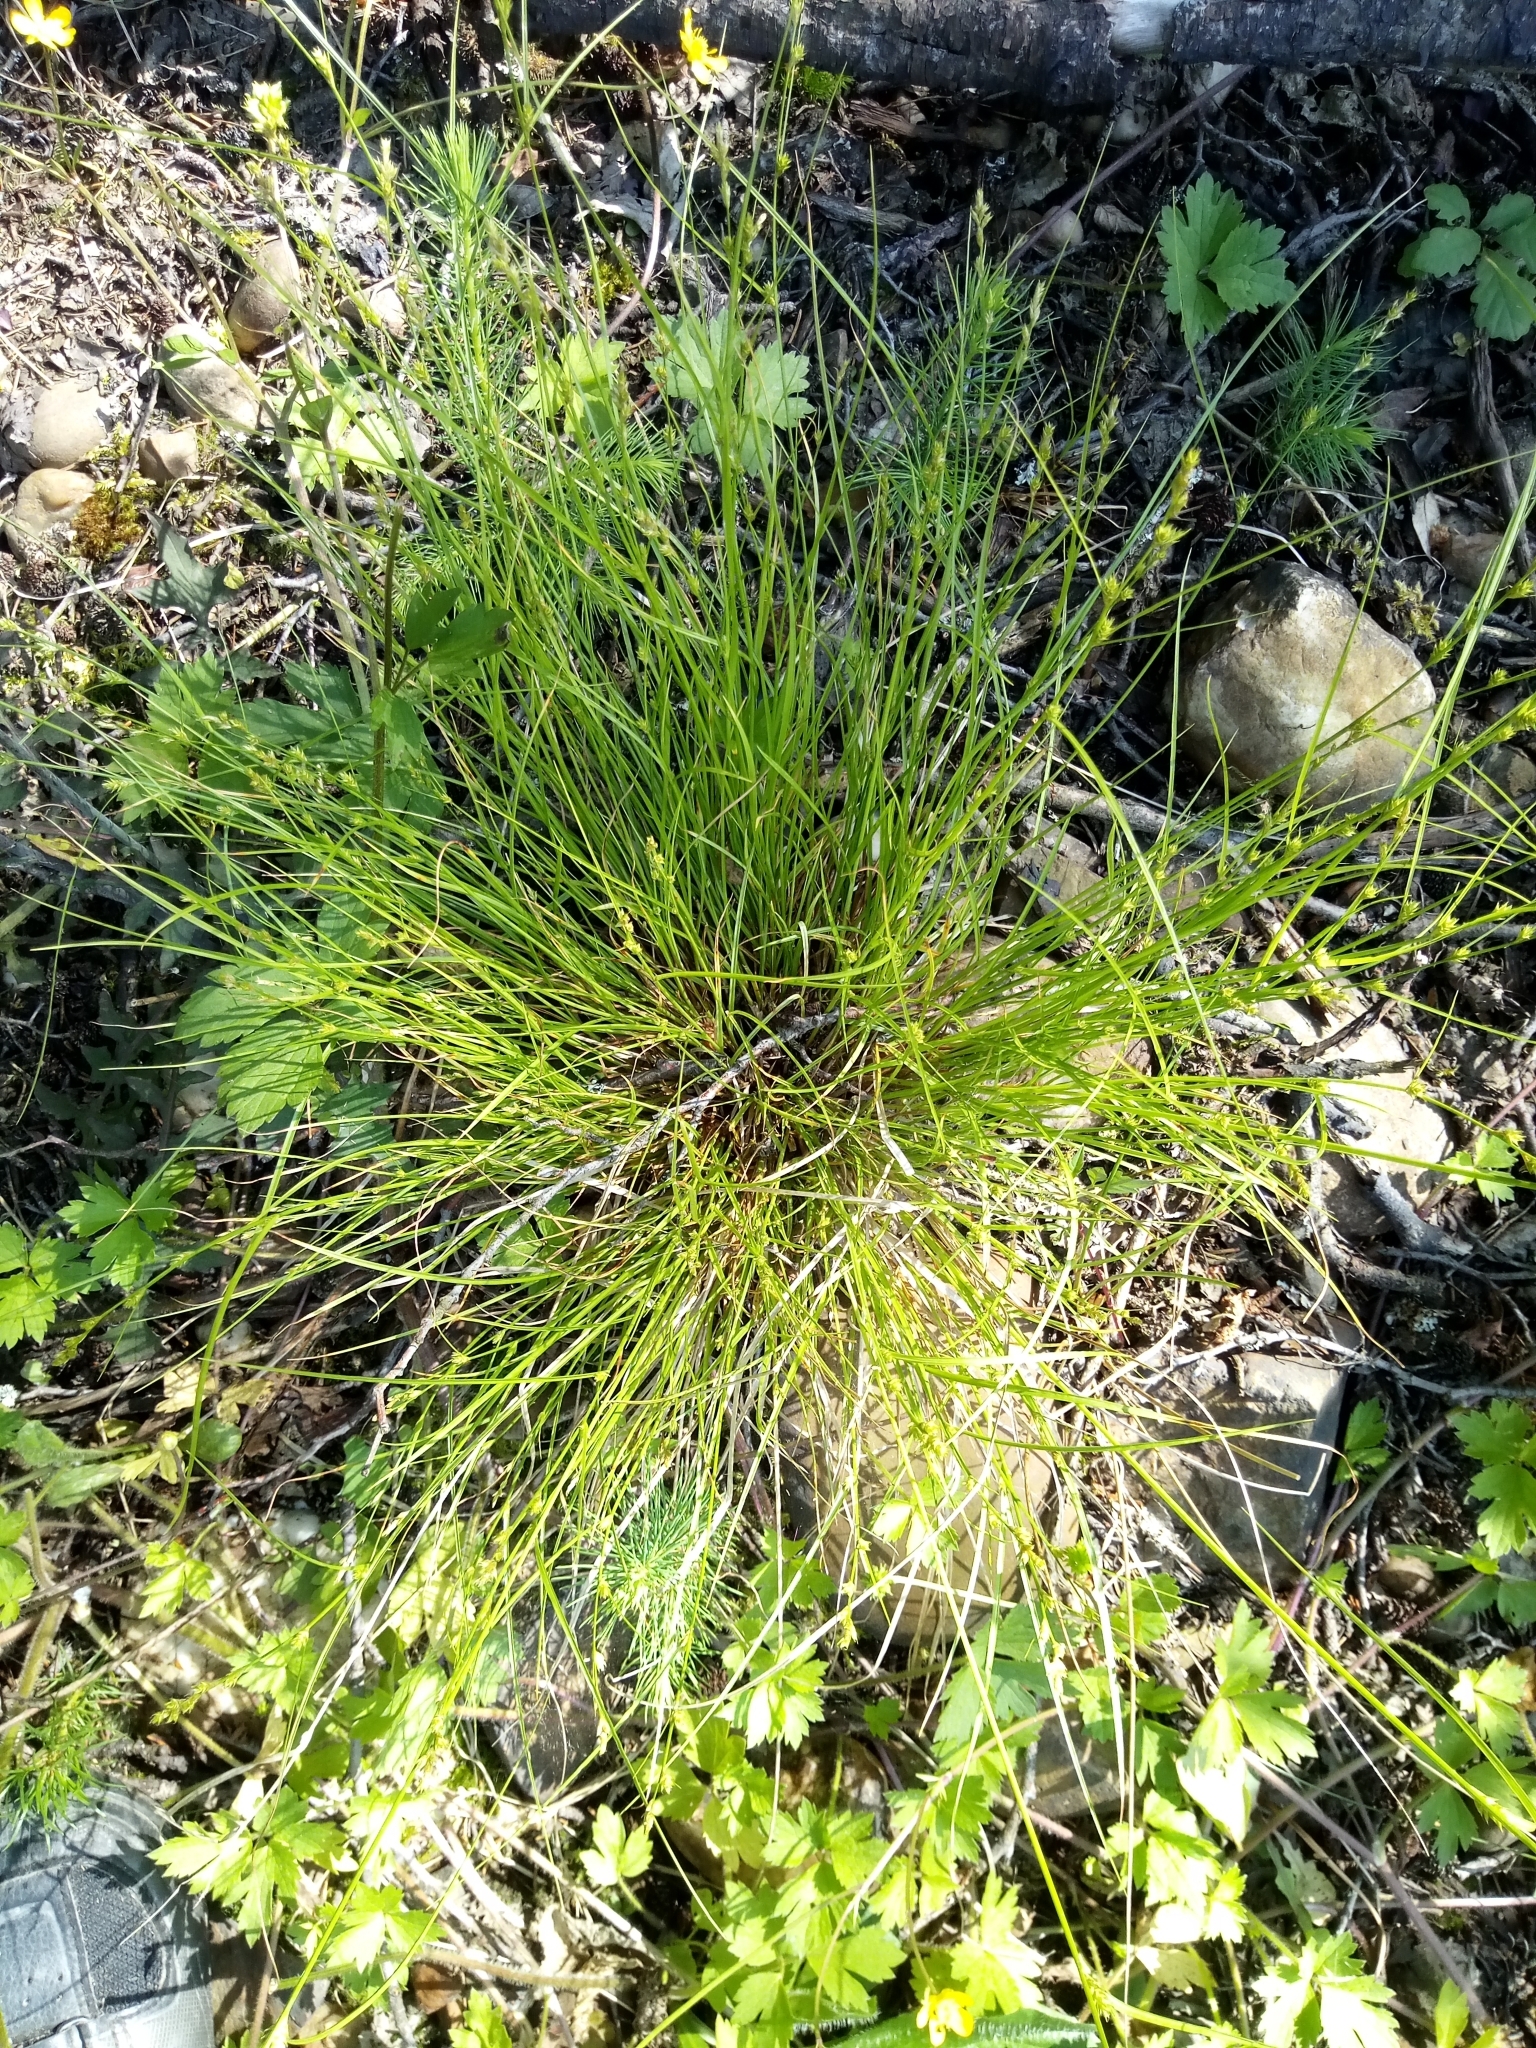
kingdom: Plantae
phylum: Tracheophyta
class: Liliopsida
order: Poales
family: Cyperaceae
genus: Carex
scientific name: Carex remota
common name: Remote sedge
